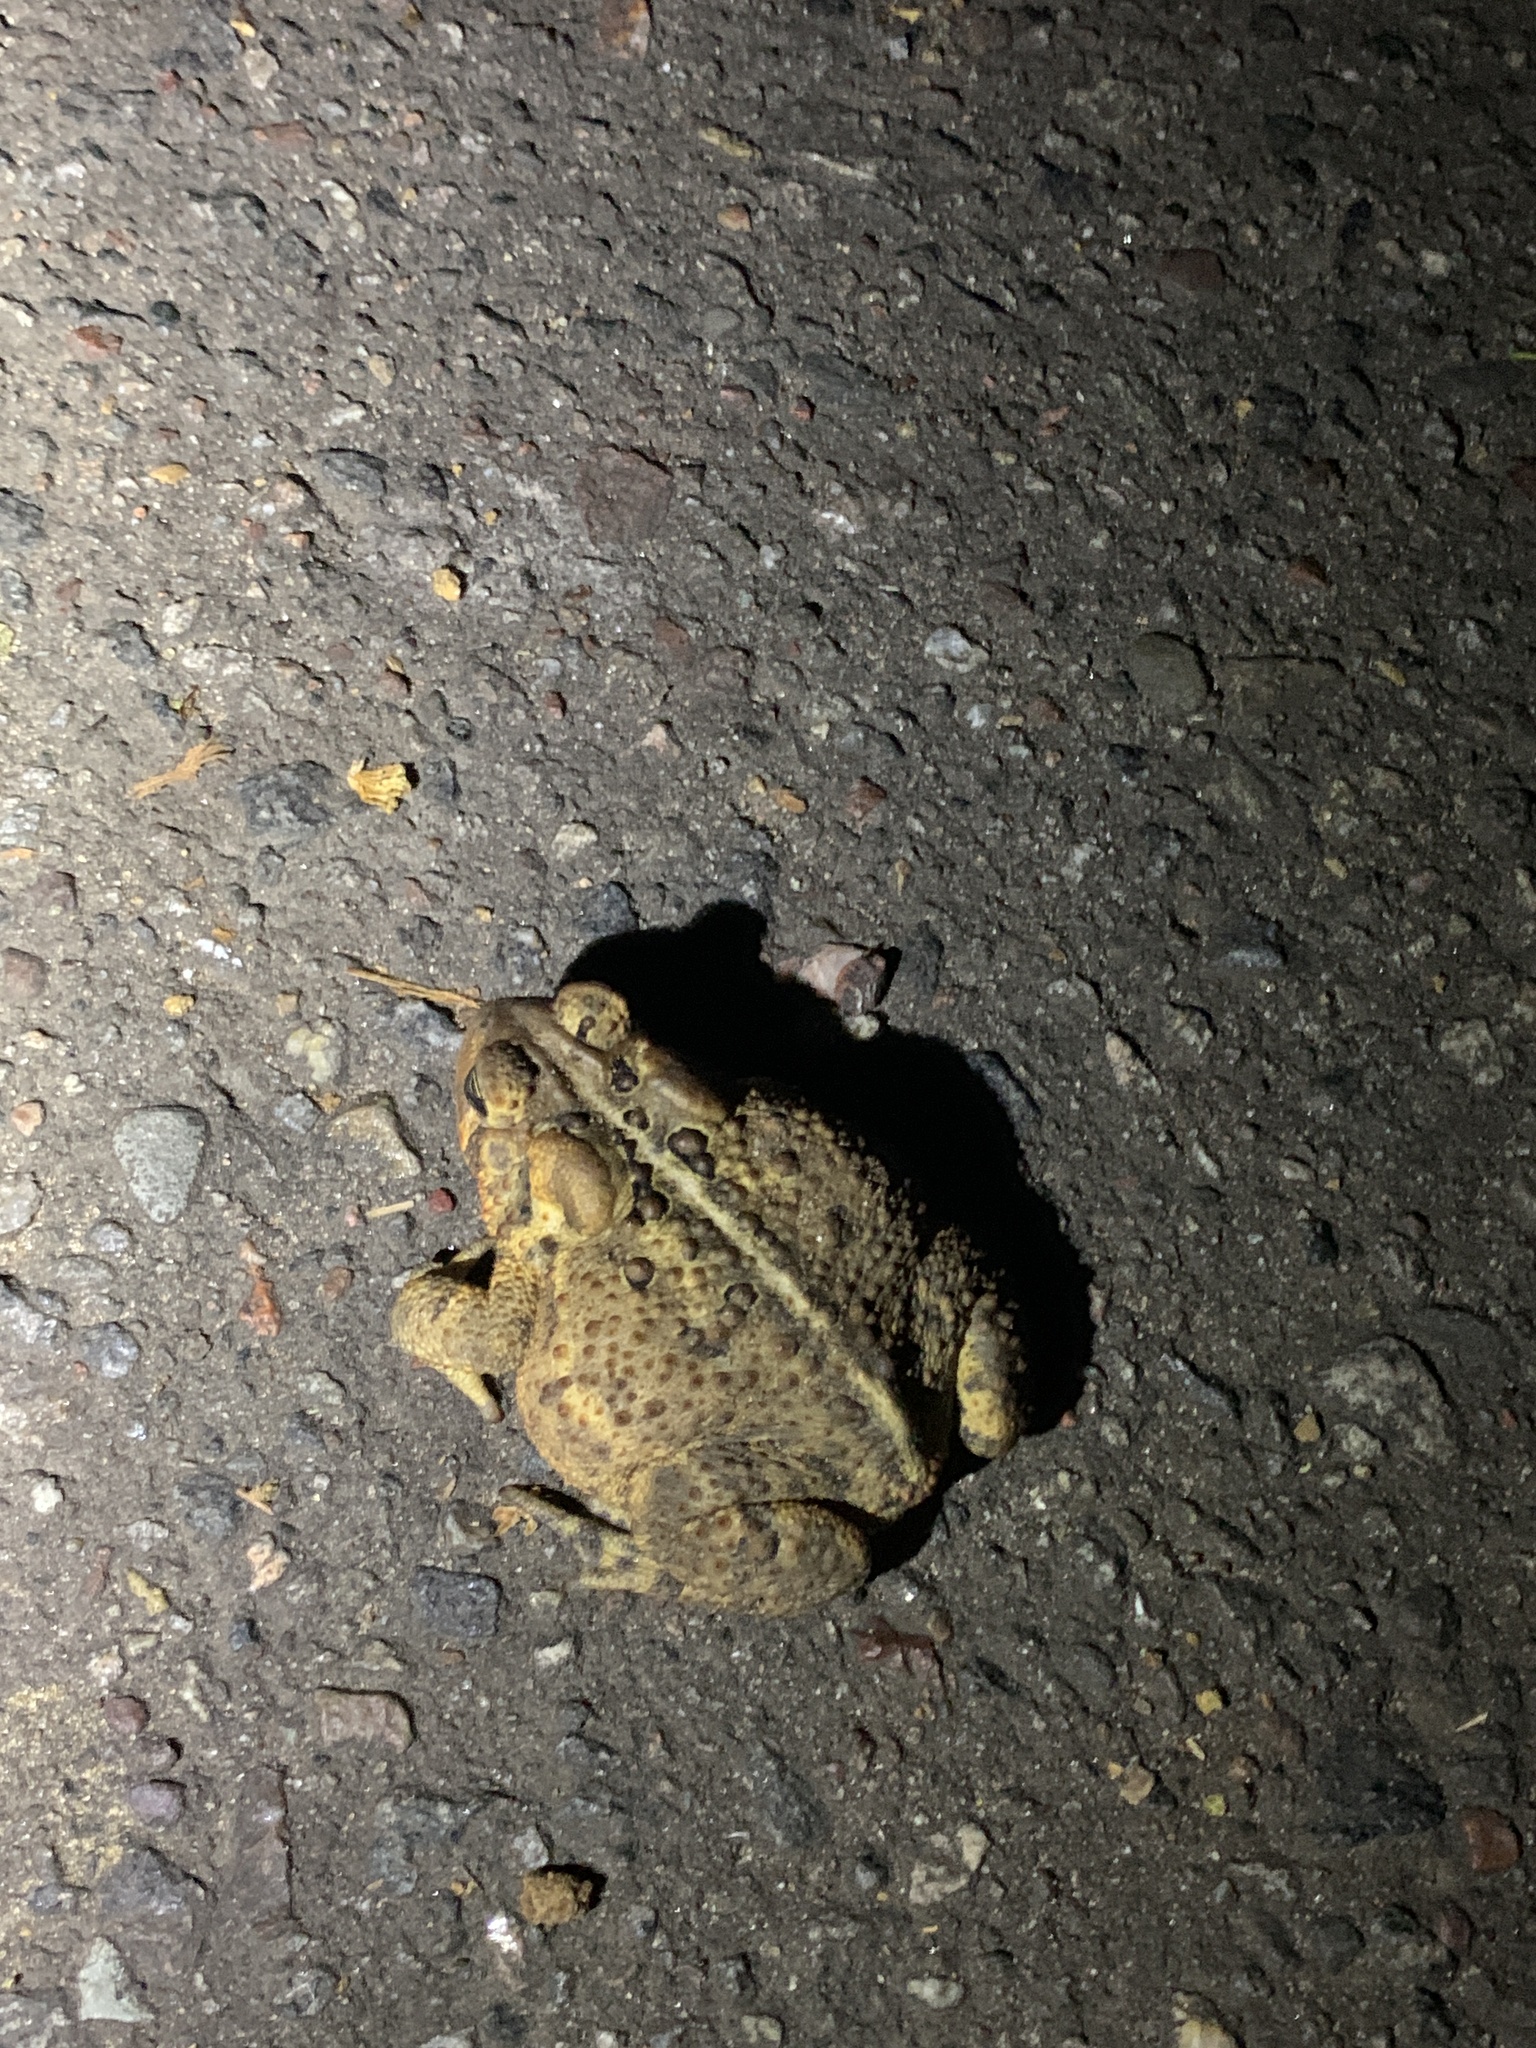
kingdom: Animalia
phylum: Chordata
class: Amphibia
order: Anura
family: Bufonidae
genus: Anaxyrus
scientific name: Anaxyrus americanus
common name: American toad
